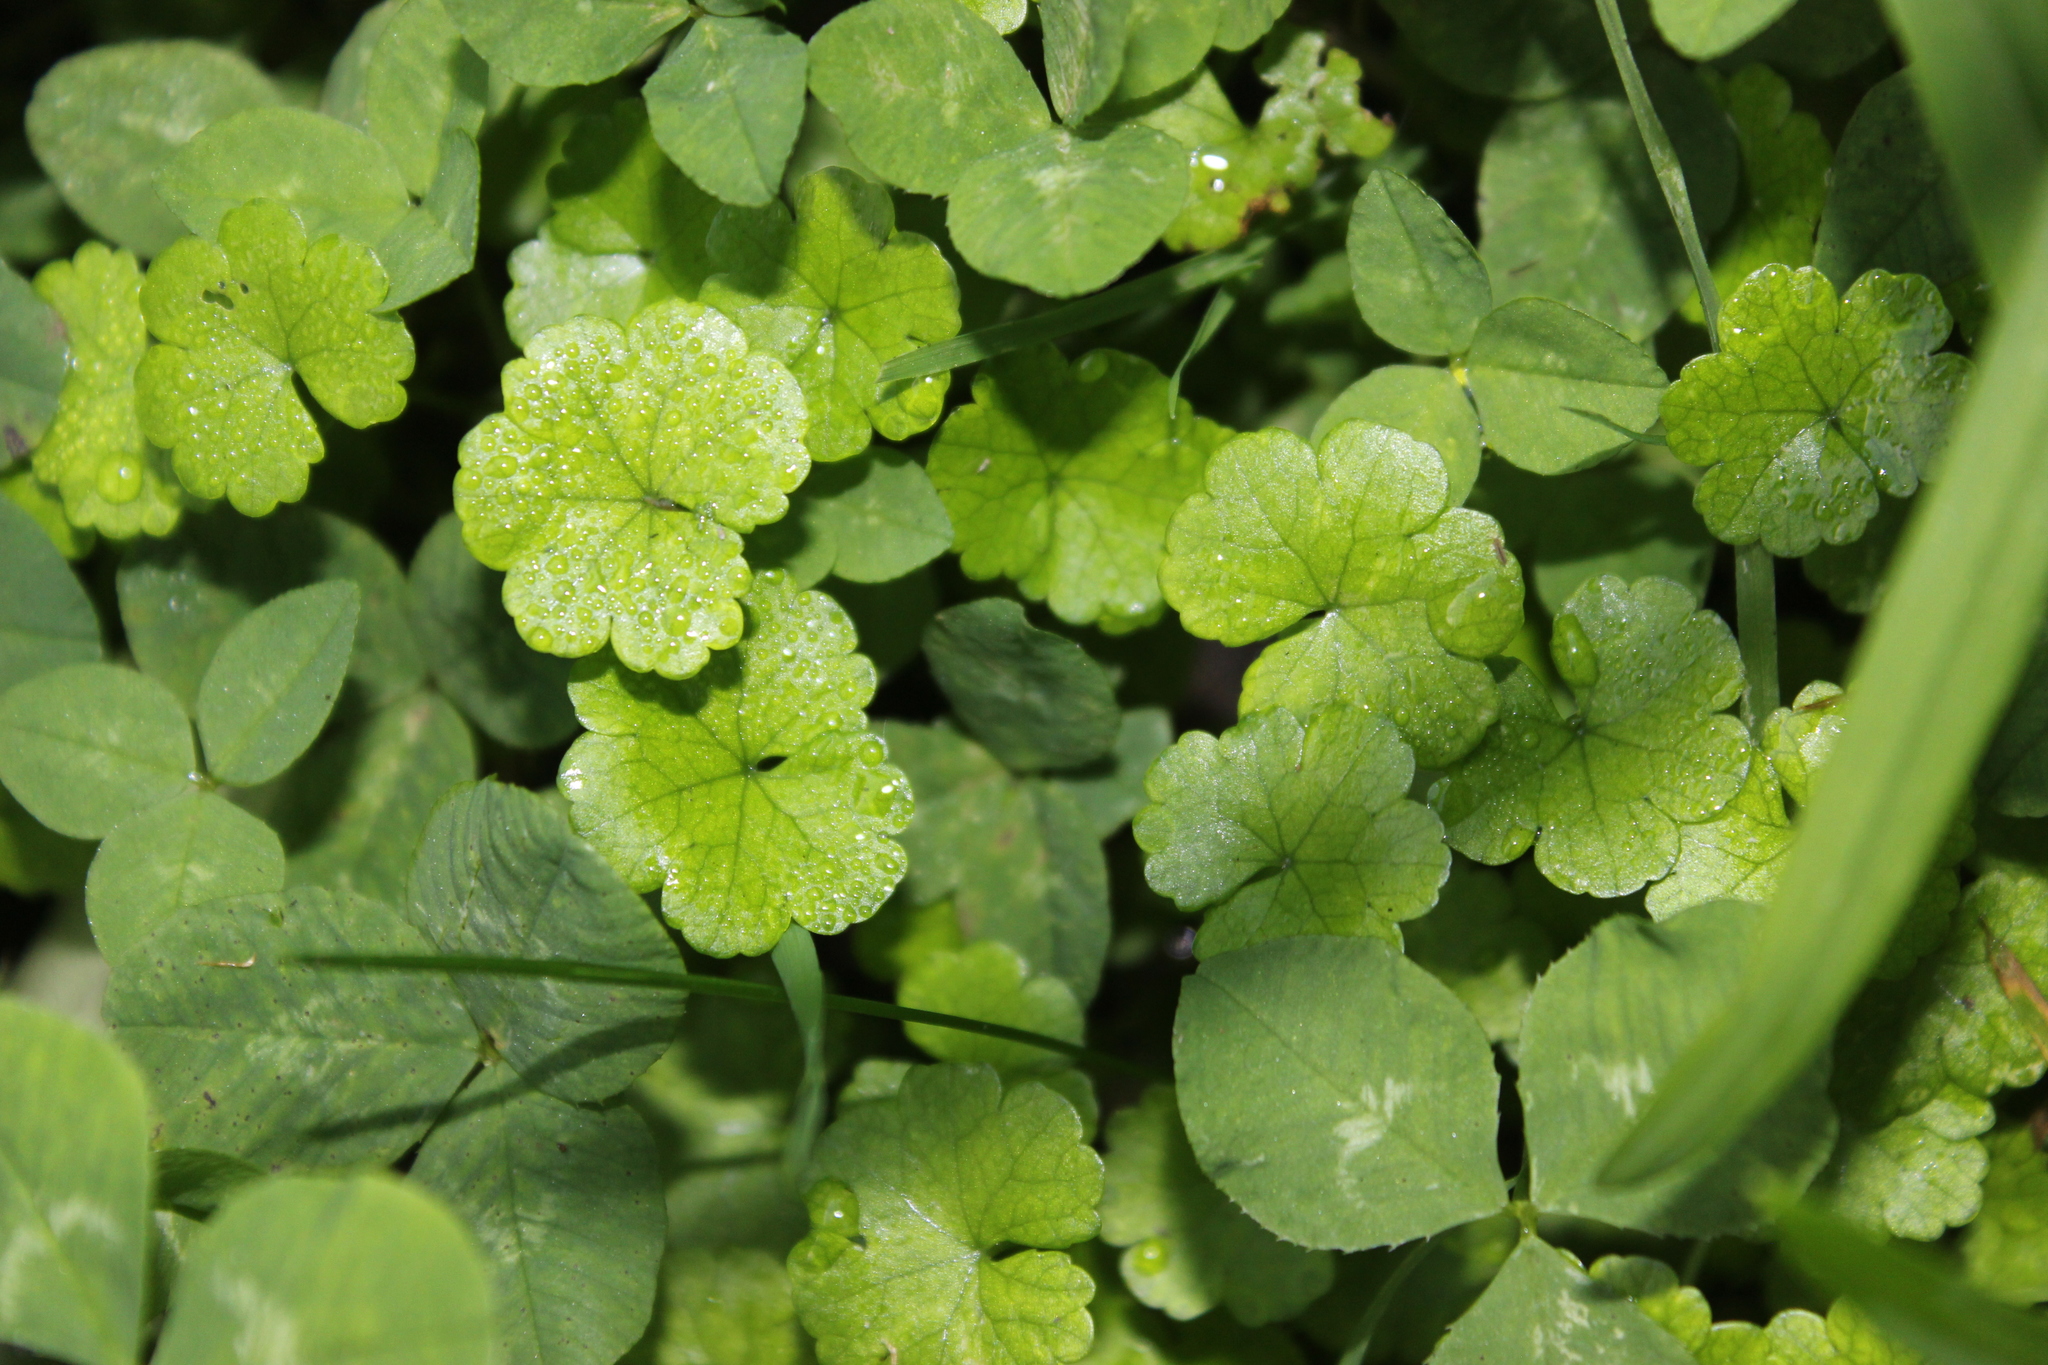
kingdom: Plantae
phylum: Tracheophyta
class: Magnoliopsida
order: Apiales
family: Araliaceae
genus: Hydrocotyle
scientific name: Hydrocotyle heteromeria
